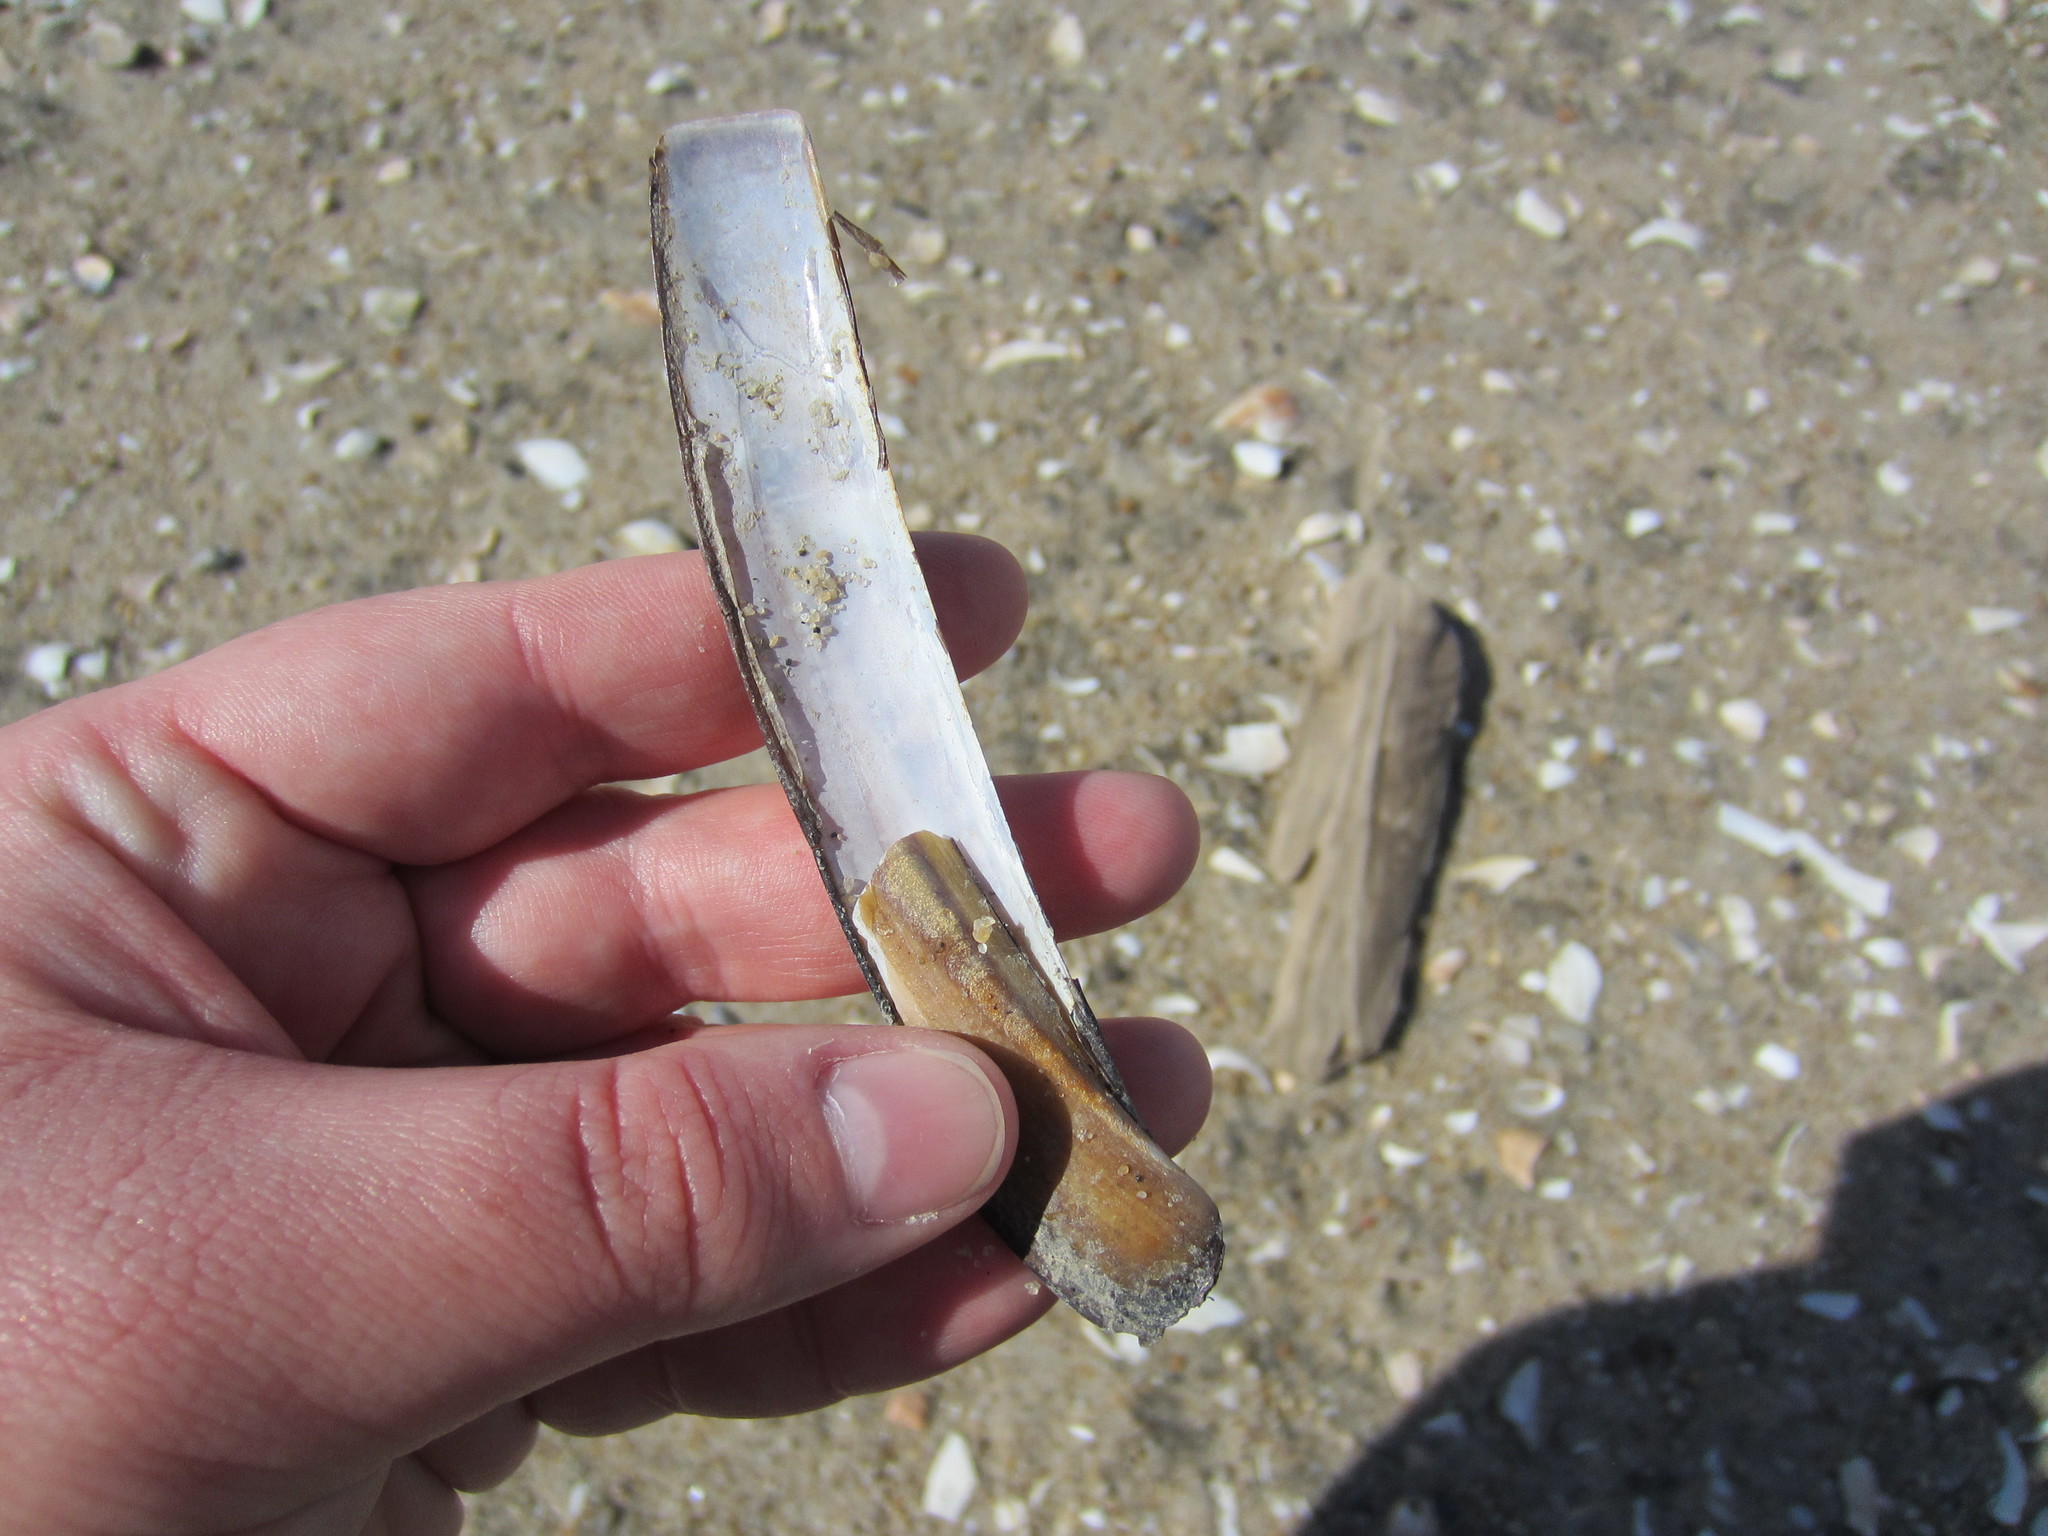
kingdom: Animalia
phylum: Mollusca
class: Bivalvia
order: Adapedonta
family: Pharidae
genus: Ensis
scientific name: Ensis leei
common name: American jack knife clam
